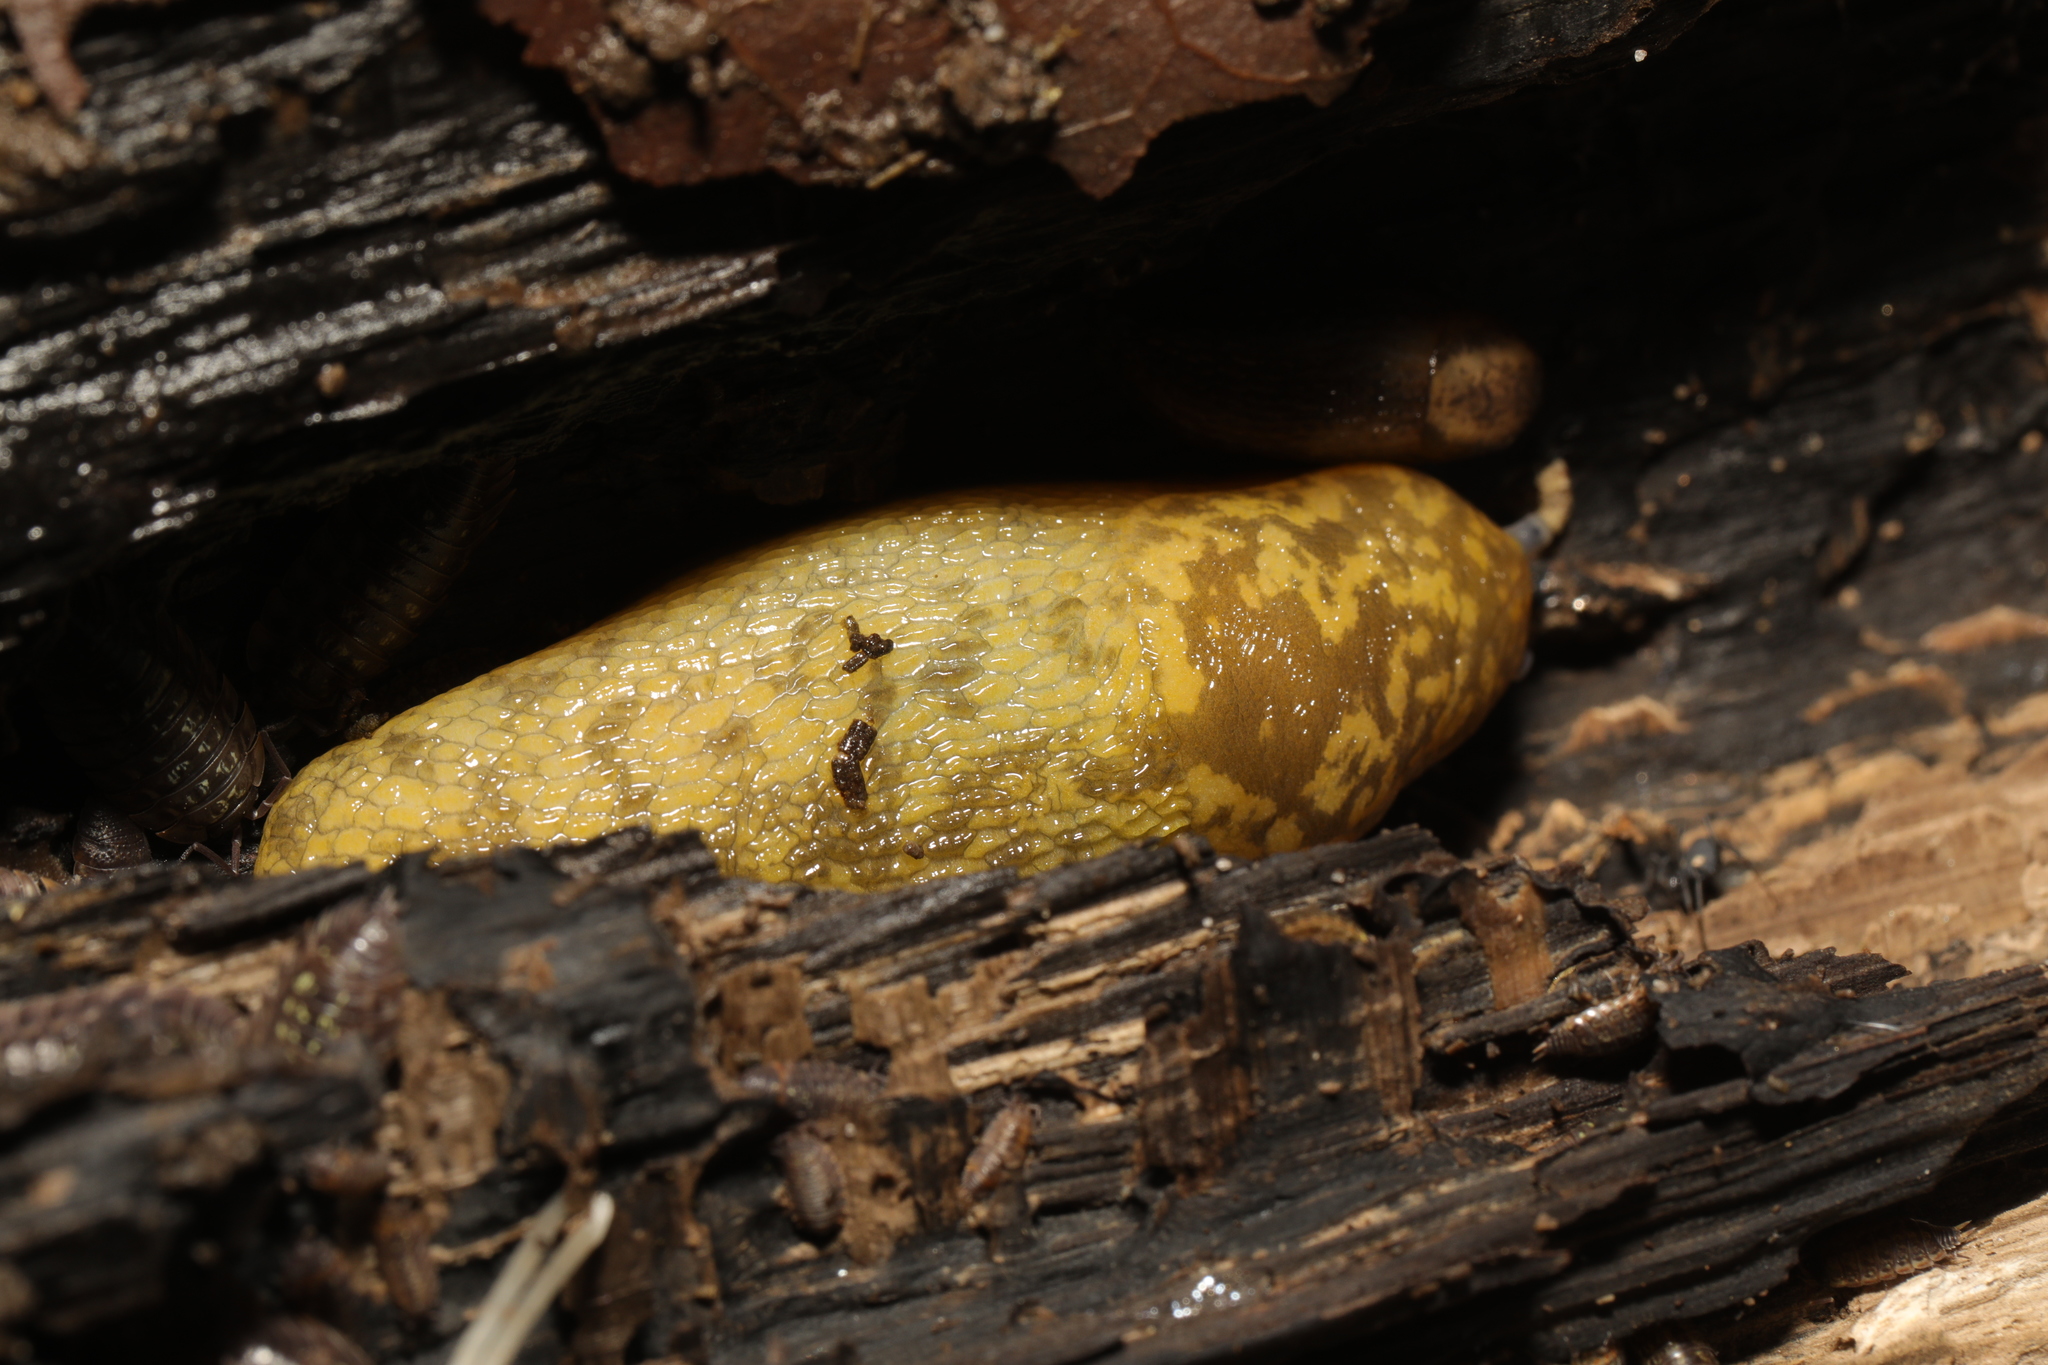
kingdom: Animalia
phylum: Mollusca
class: Gastropoda
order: Stylommatophora
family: Limacidae
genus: Limacus
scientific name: Limacus maculatus
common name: Irish yellow slug
